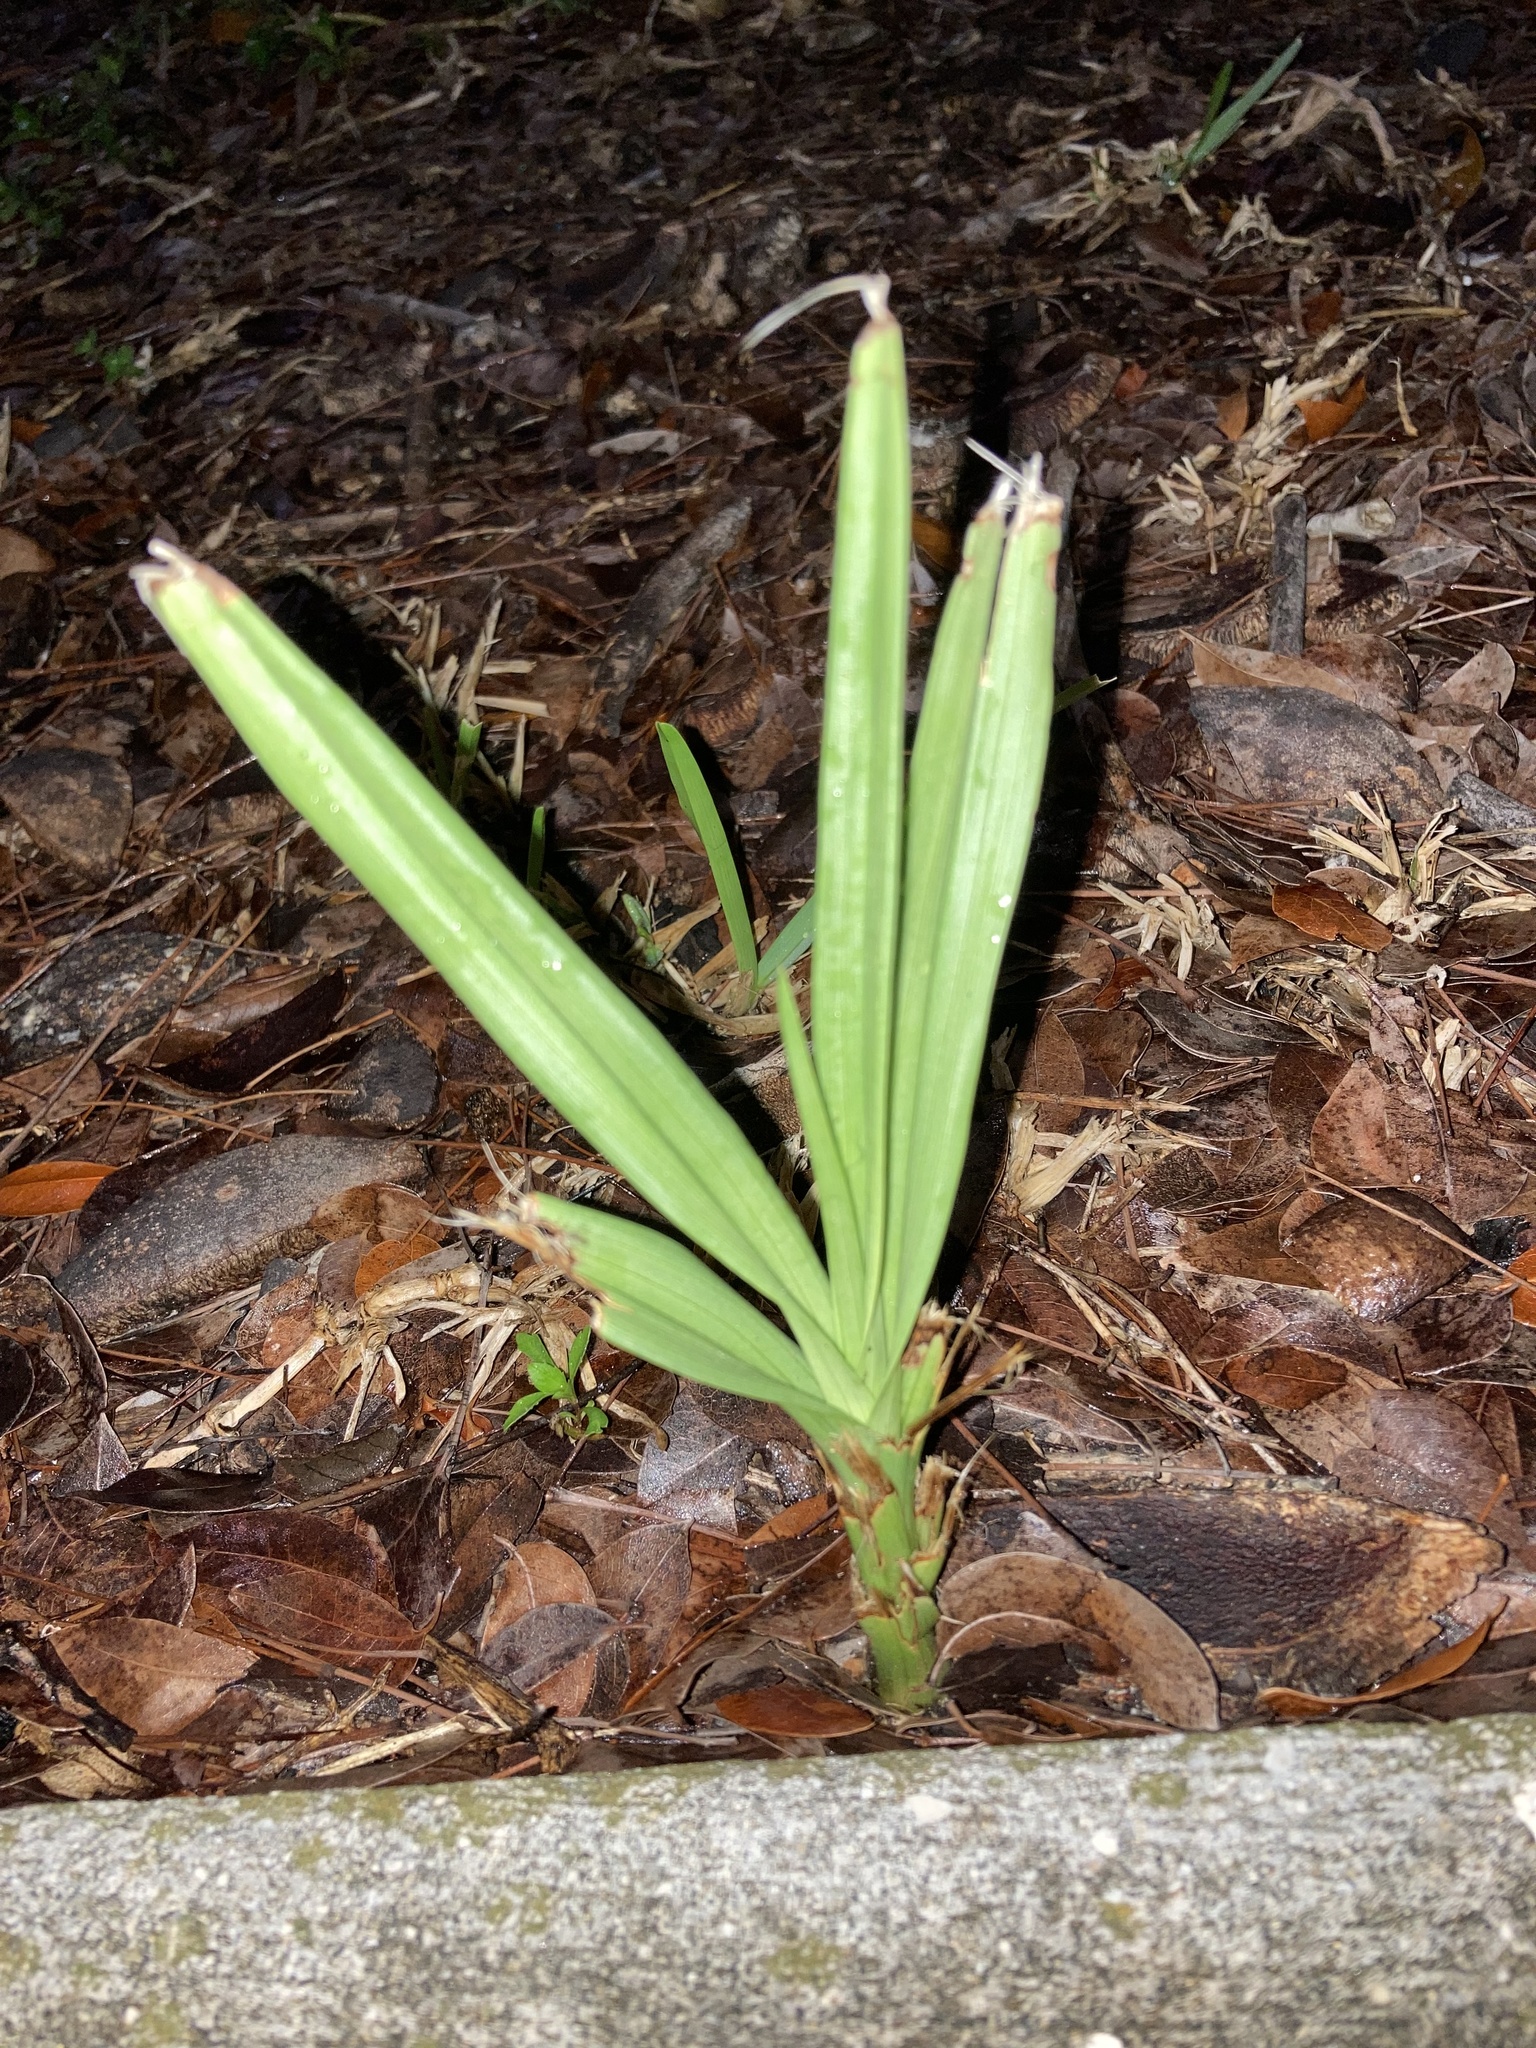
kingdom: Plantae
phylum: Tracheophyta
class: Liliopsida
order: Asparagales
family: Orchidaceae
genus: Eulophia
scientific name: Eulophia graminea
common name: Orchid
